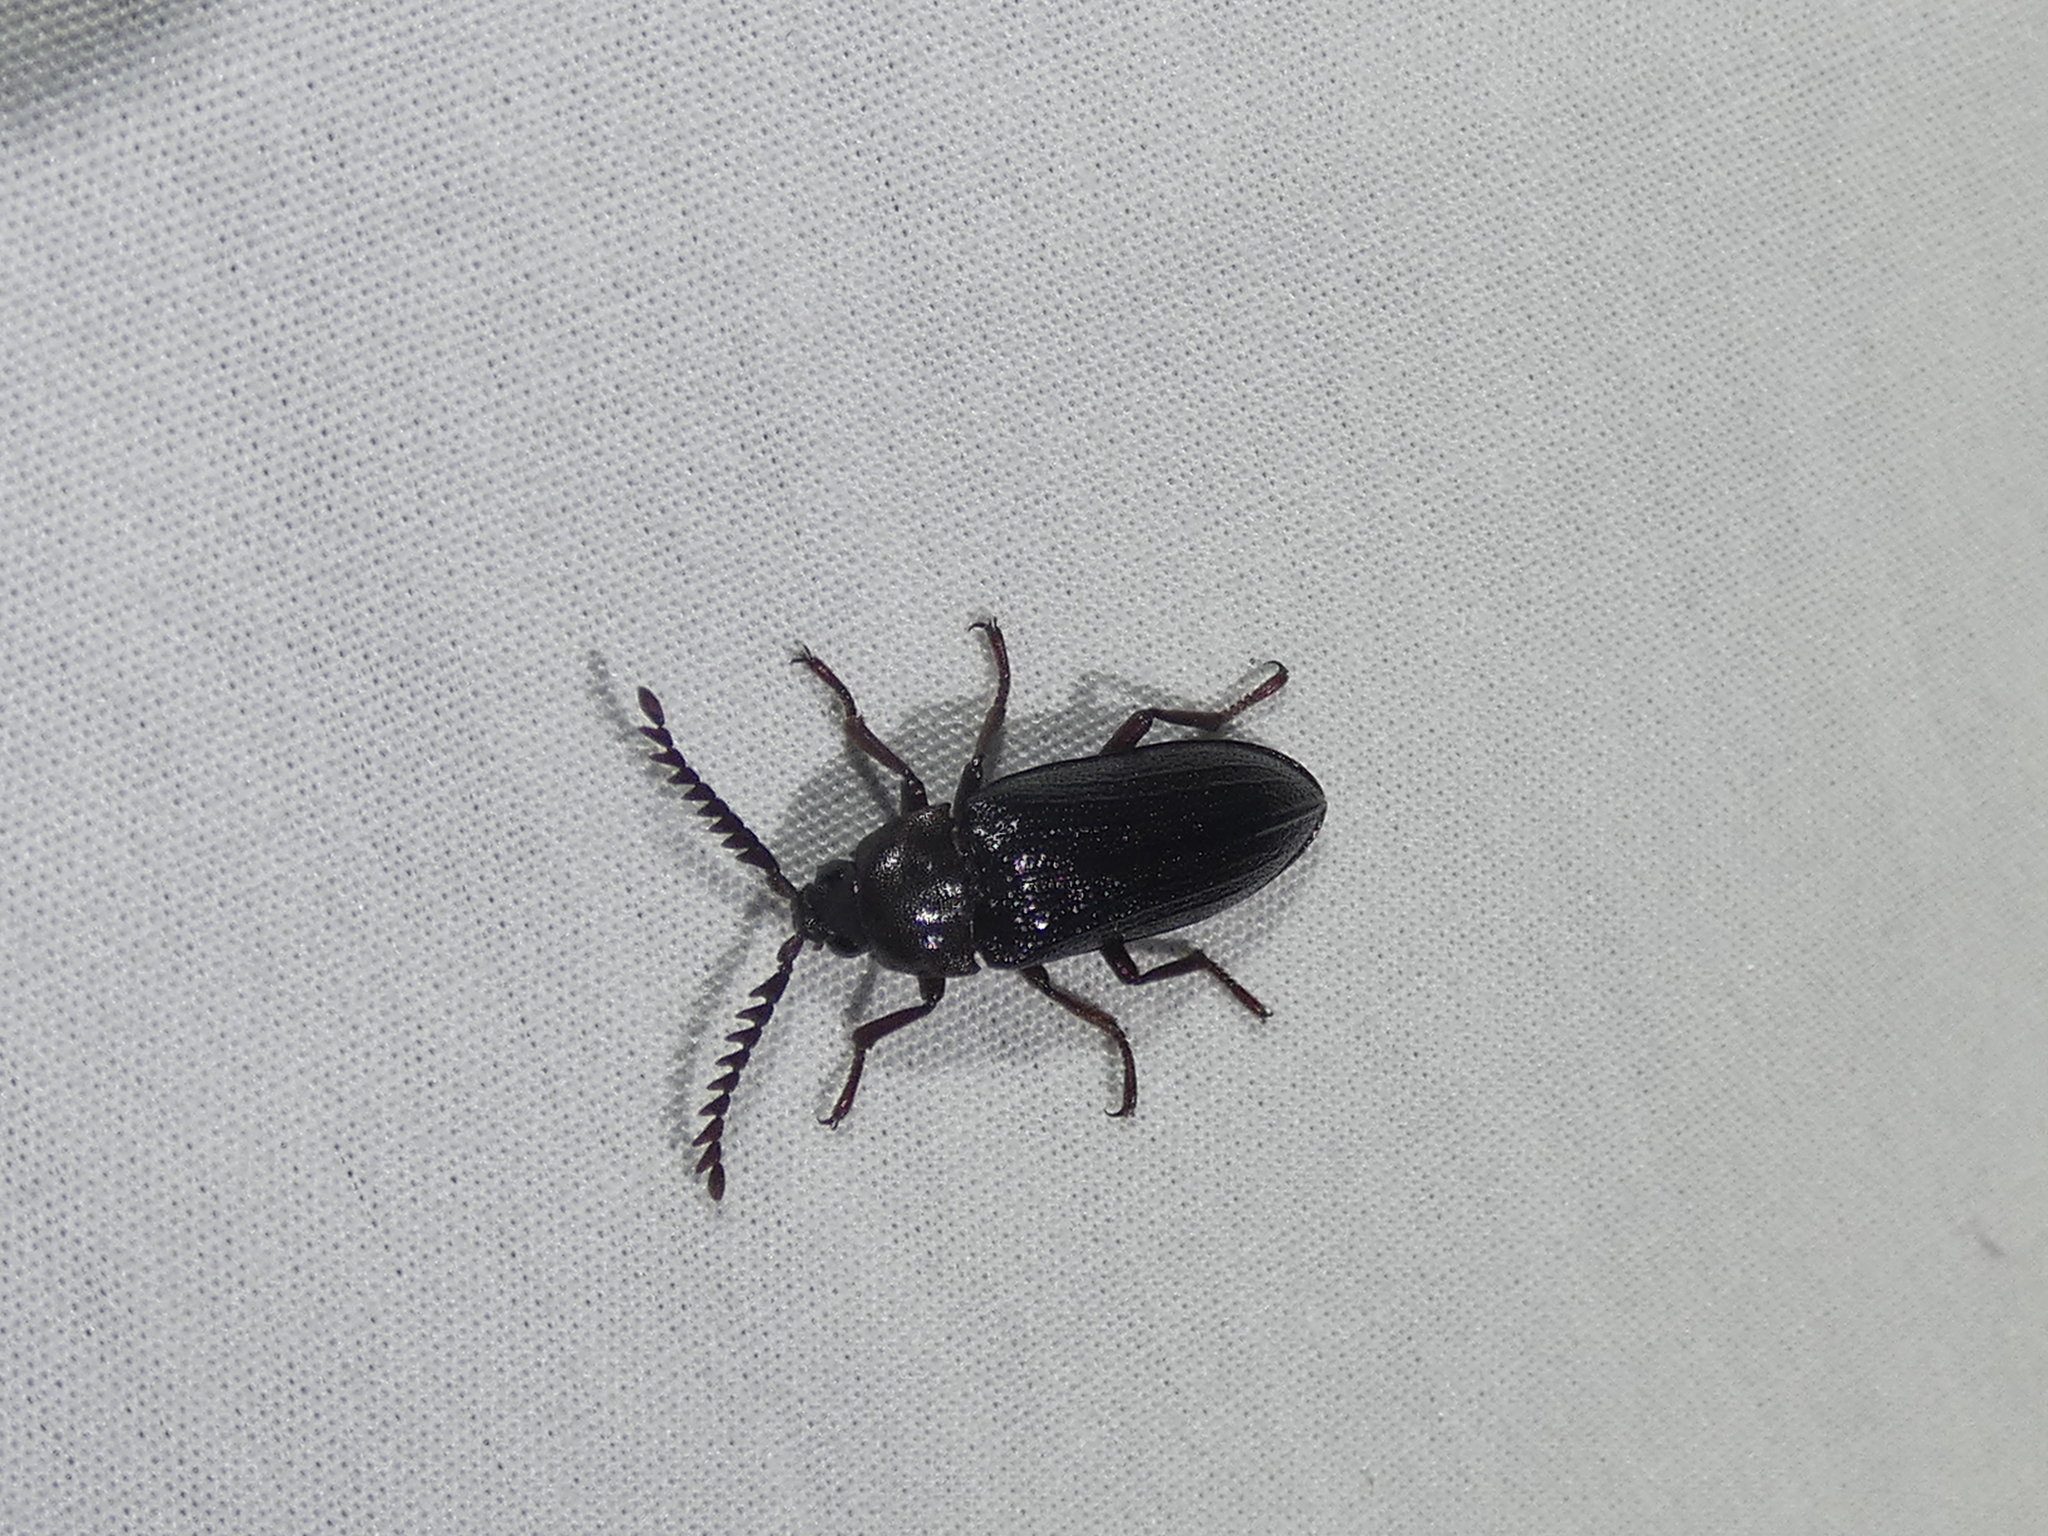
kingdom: Animalia
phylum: Arthropoda
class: Insecta
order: Coleoptera
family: Callirhipidae
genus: Zenoa
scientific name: Zenoa picea
